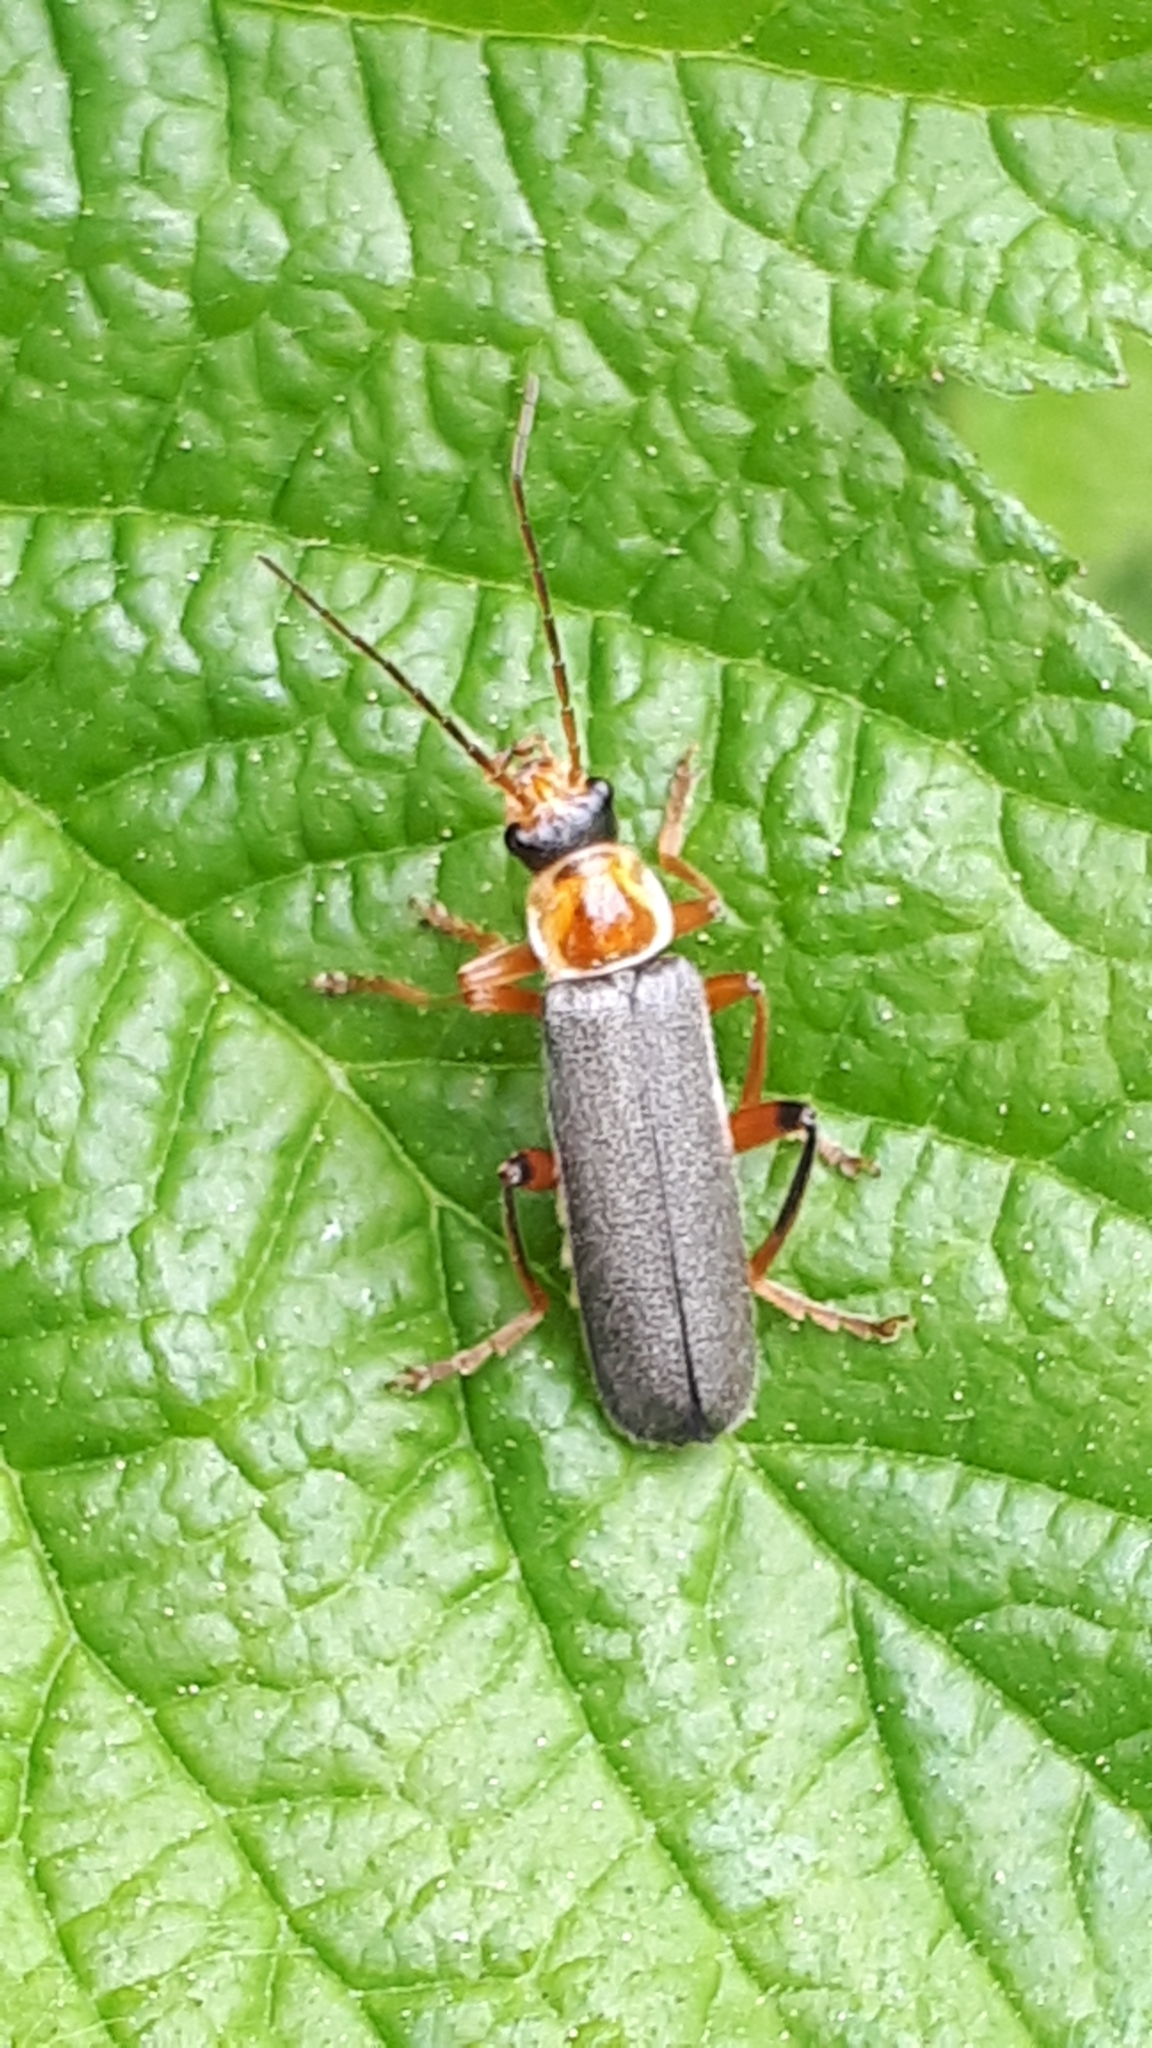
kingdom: Animalia
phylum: Arthropoda
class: Insecta
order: Coleoptera
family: Cantharidae
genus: Cantharis
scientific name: Cantharis nigricans
